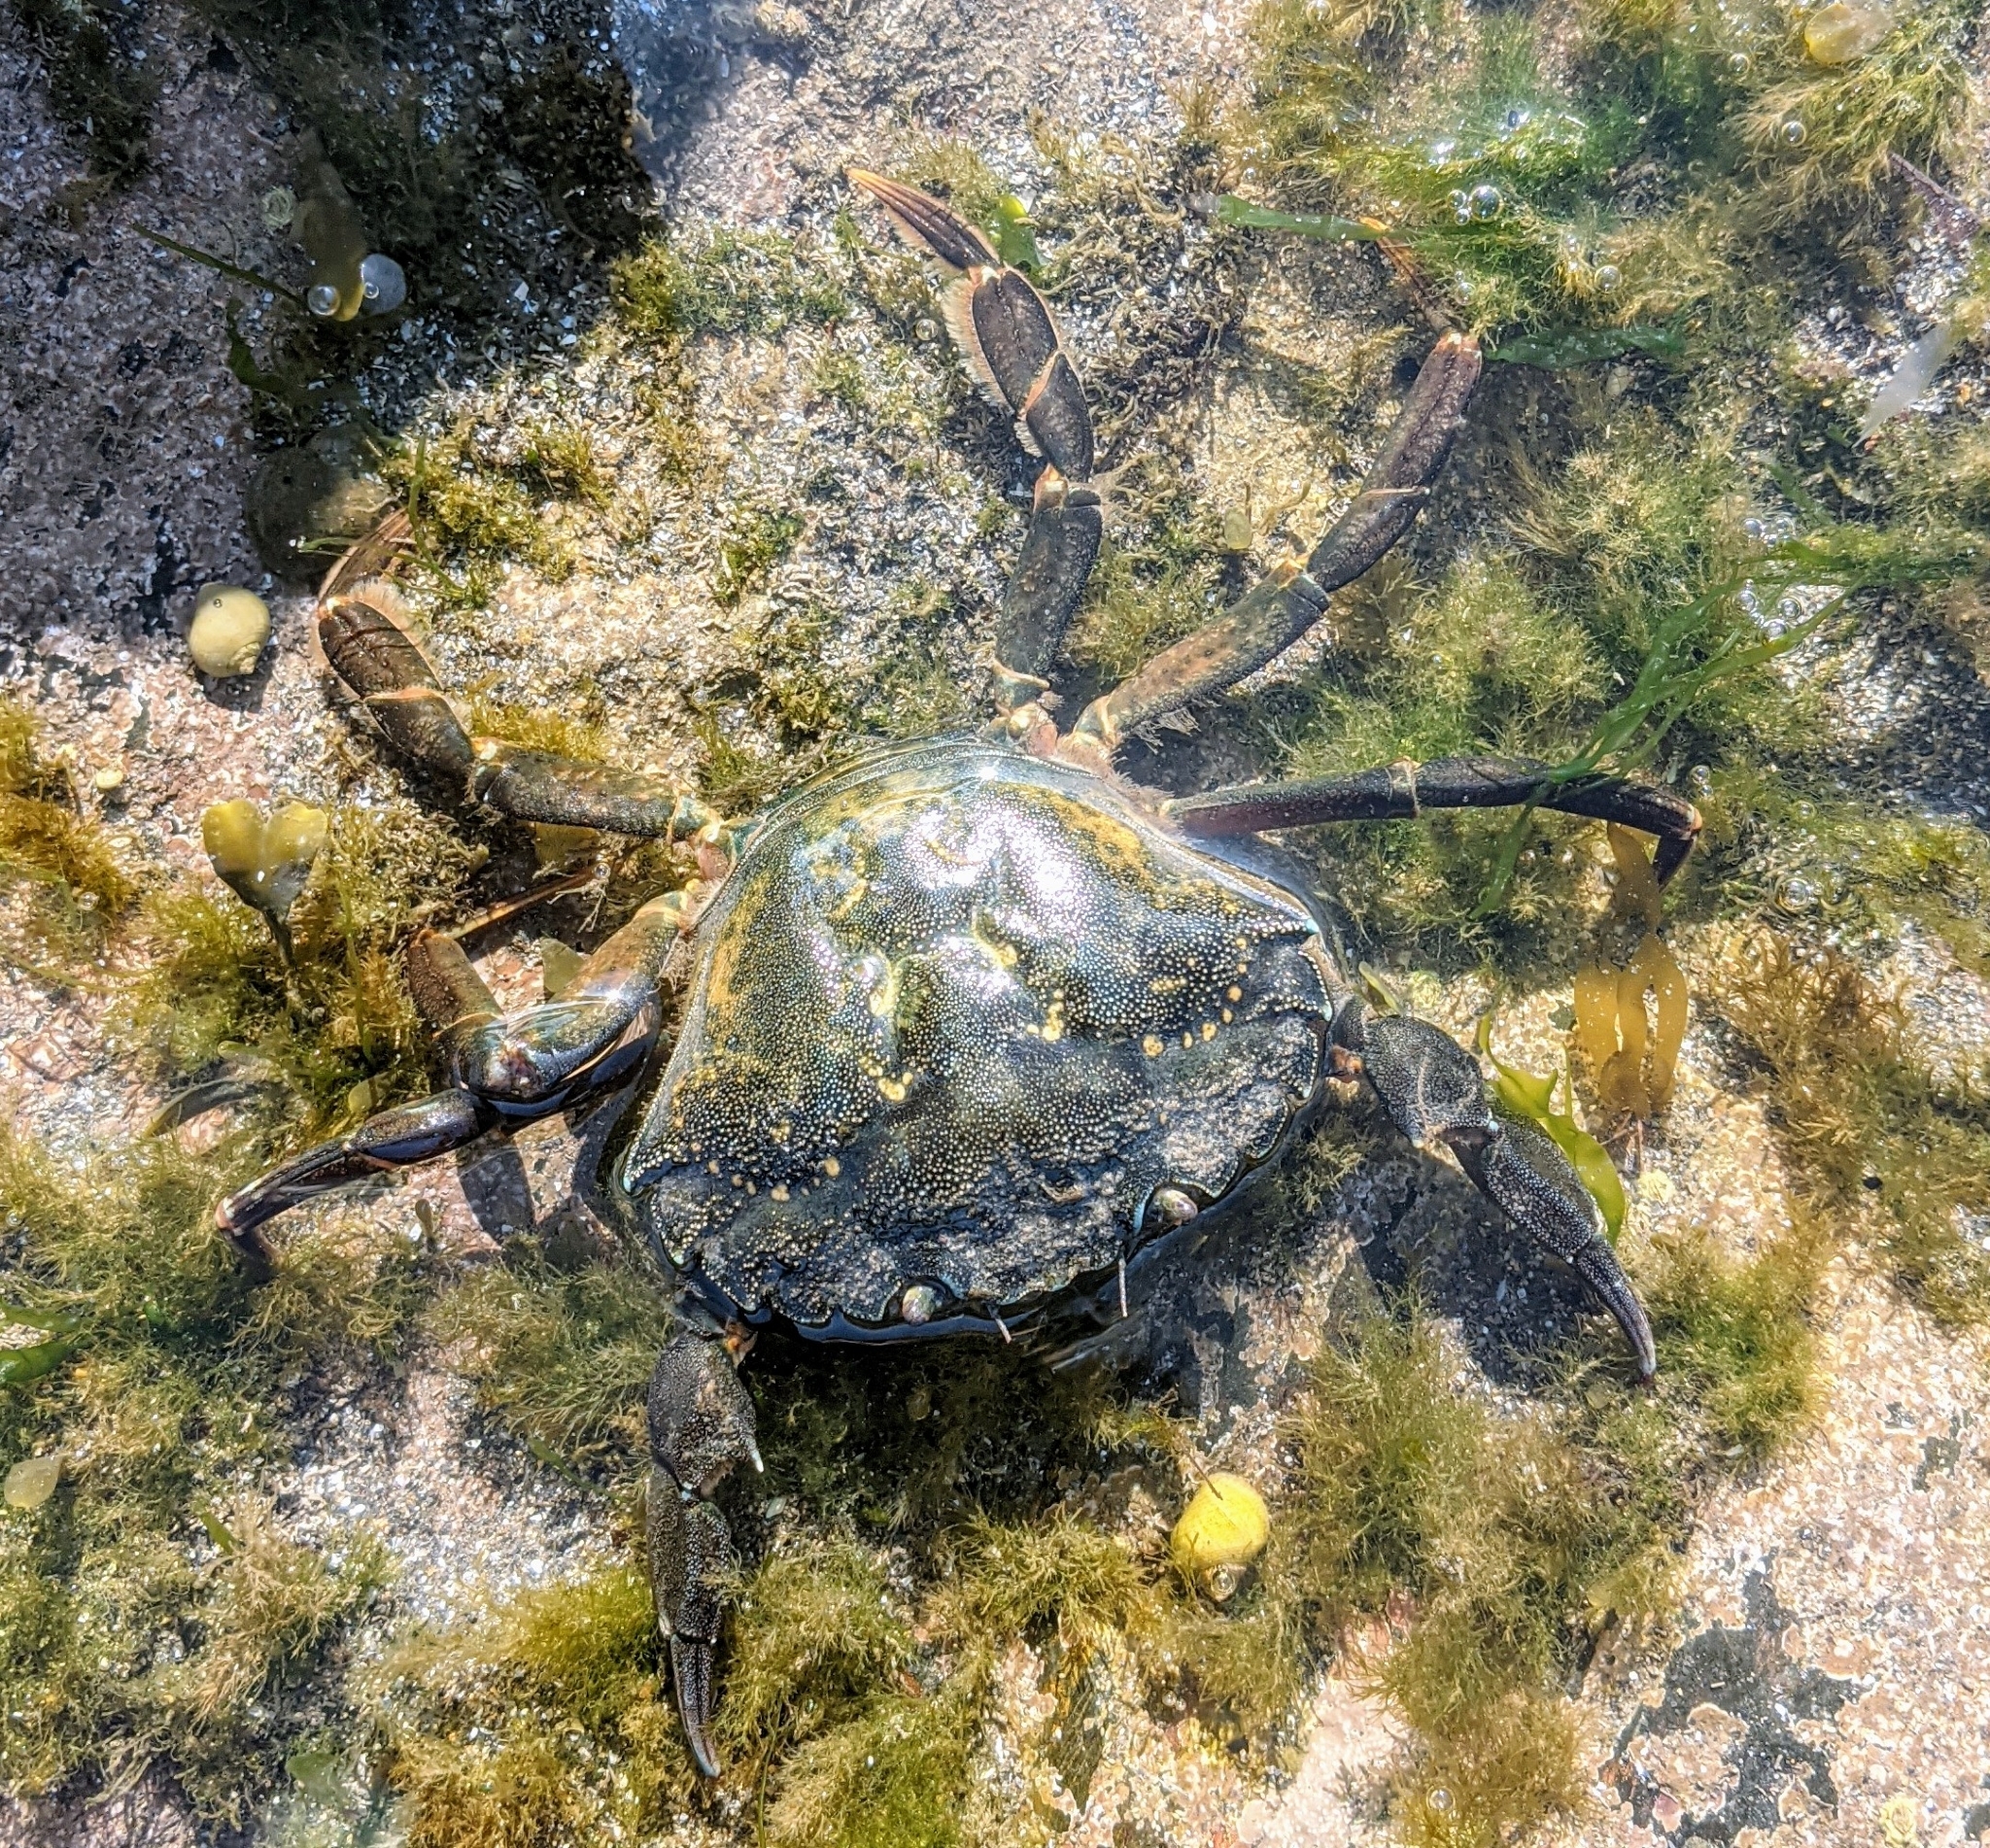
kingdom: Animalia
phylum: Arthropoda
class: Malacostraca
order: Decapoda
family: Carcinidae
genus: Carcinus
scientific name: Carcinus maenas
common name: European green crab
